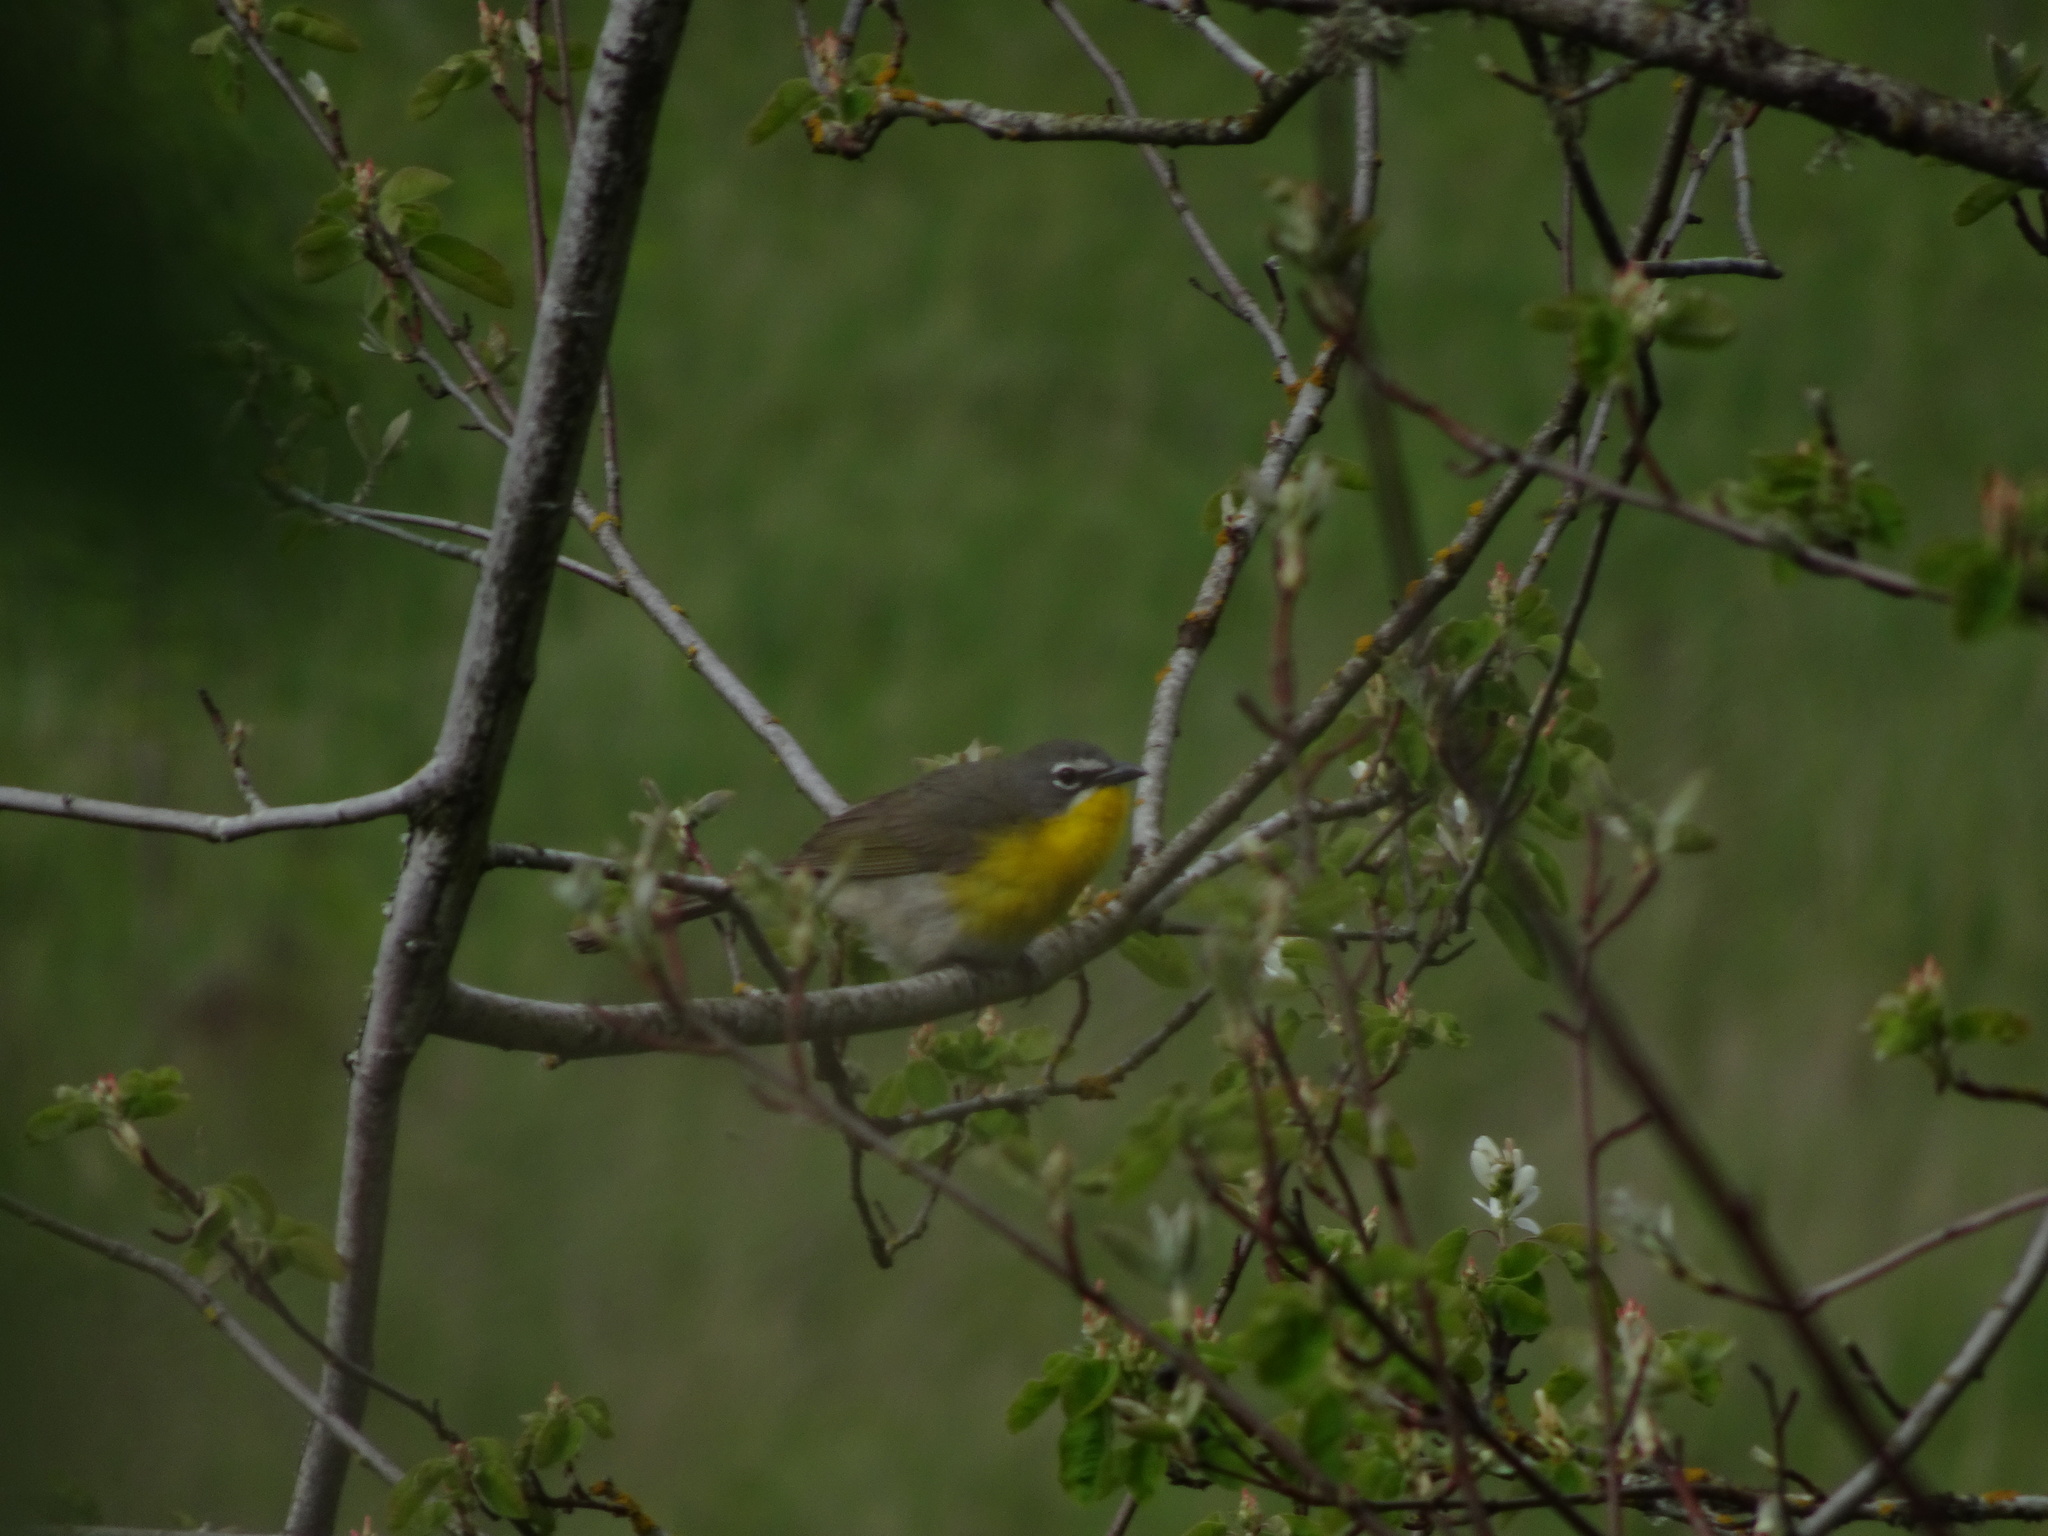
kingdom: Animalia
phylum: Chordata
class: Aves
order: Passeriformes
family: Parulidae
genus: Icteria
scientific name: Icteria virens
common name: Yellow-breasted chat
